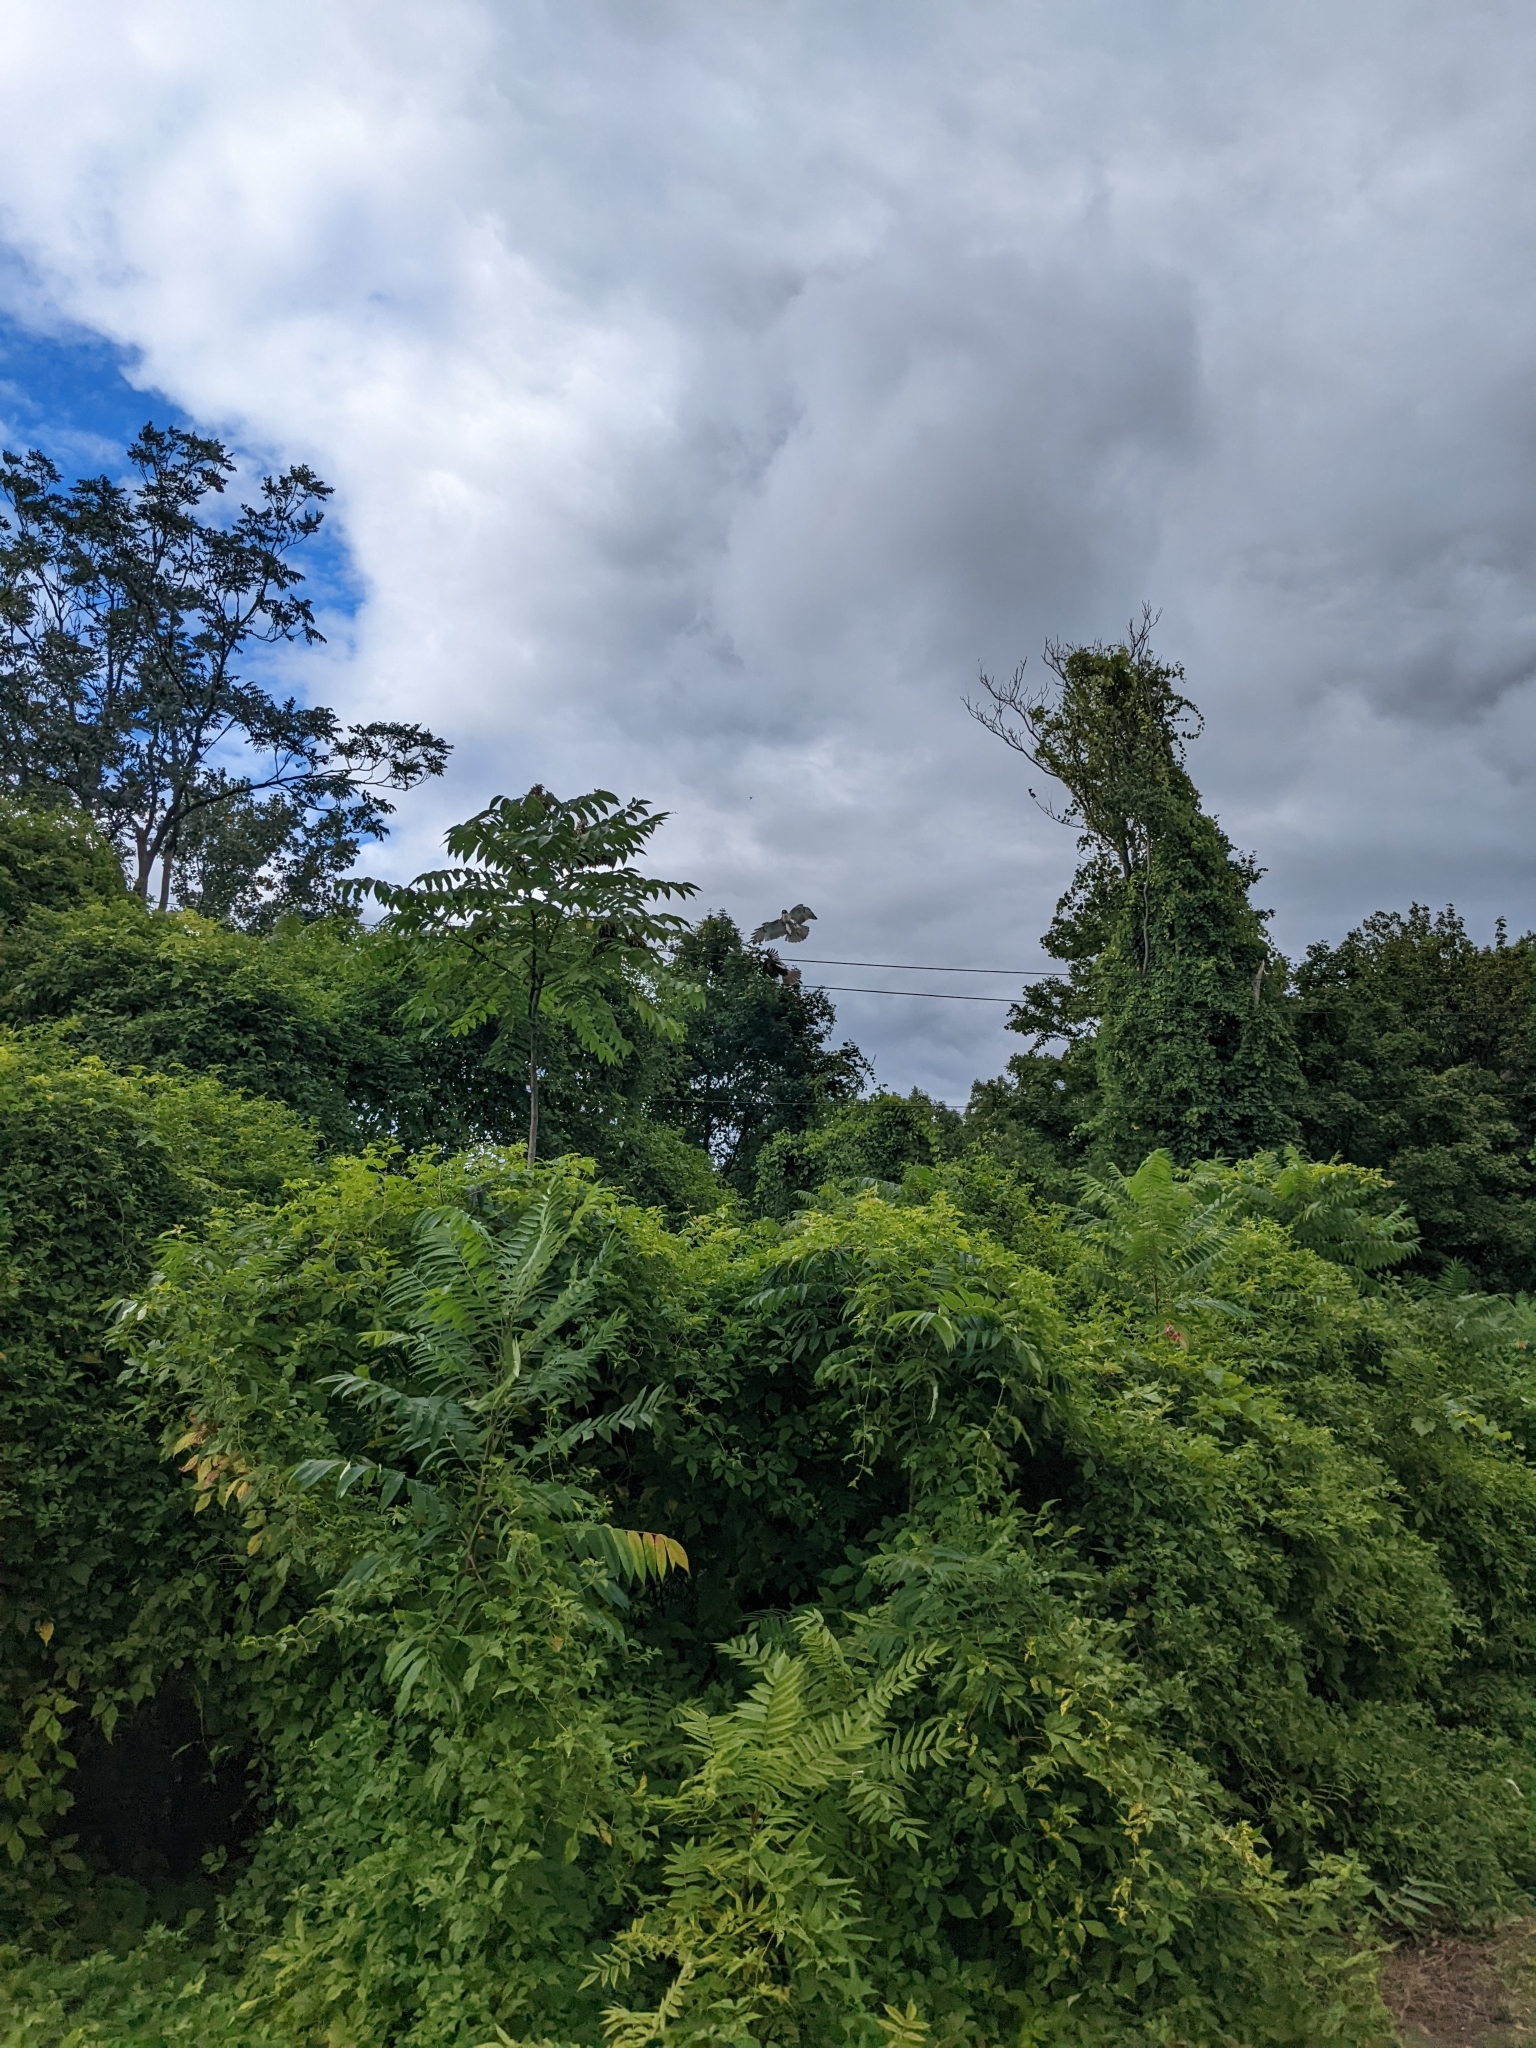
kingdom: Animalia
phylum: Chordata
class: Aves
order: Accipitriformes
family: Accipitridae
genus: Buteo
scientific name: Buteo jamaicensis
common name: Red-tailed hawk
